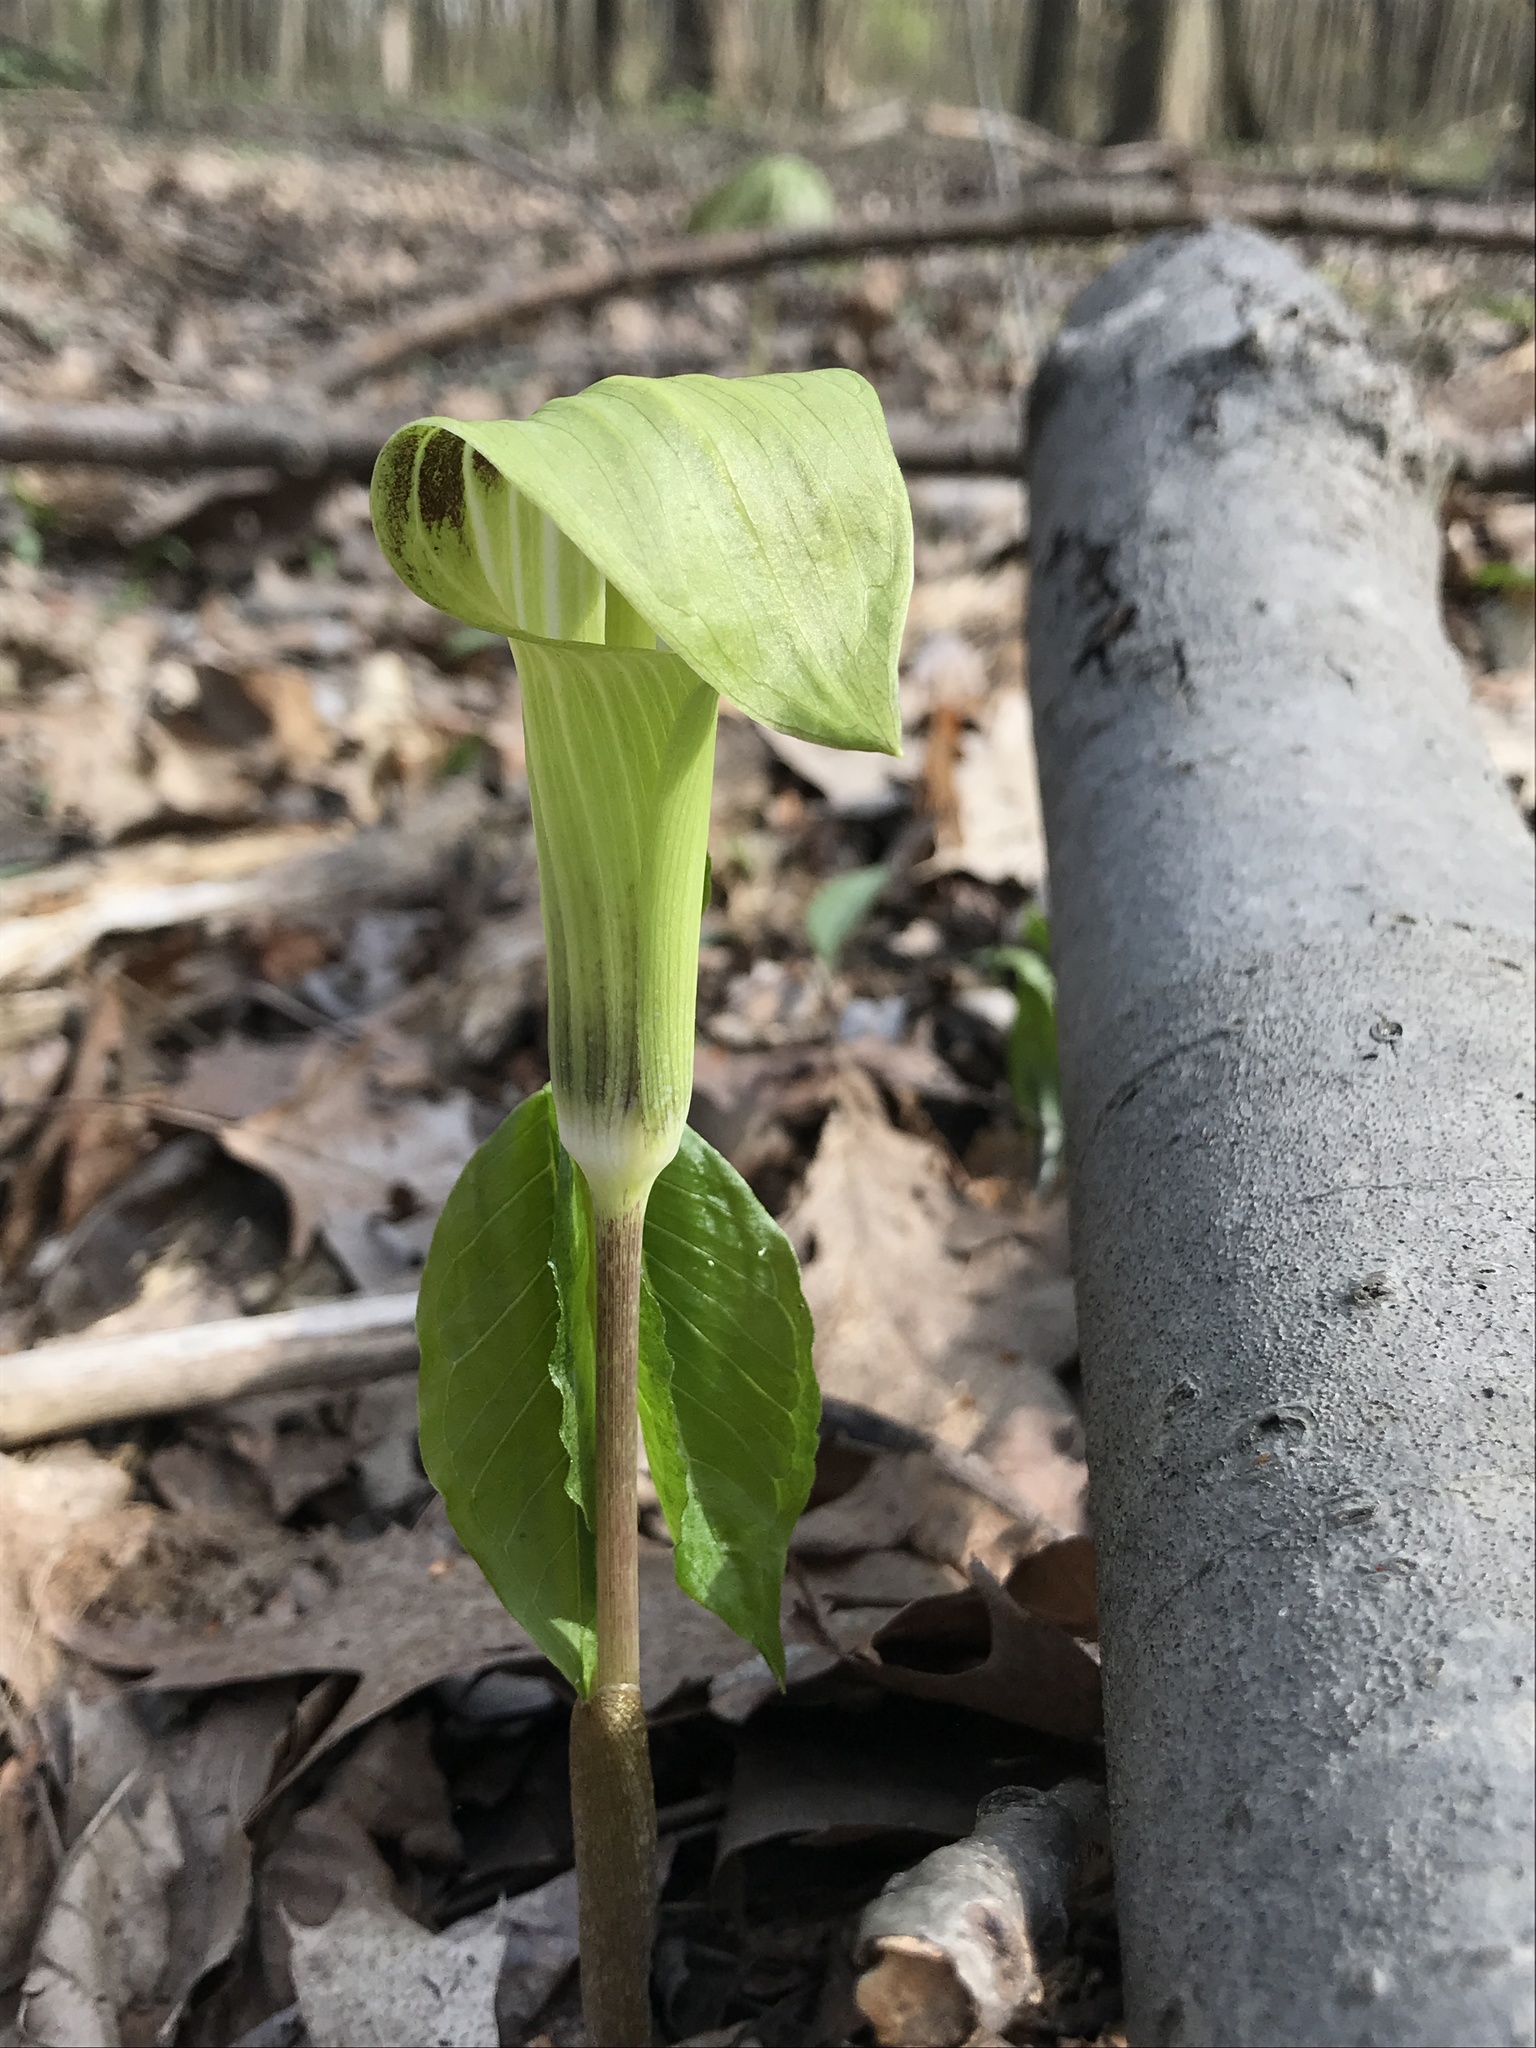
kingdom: Plantae
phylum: Tracheophyta
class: Liliopsida
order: Alismatales
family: Araceae
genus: Arisaema
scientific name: Arisaema triphyllum
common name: Jack-in-the-pulpit
